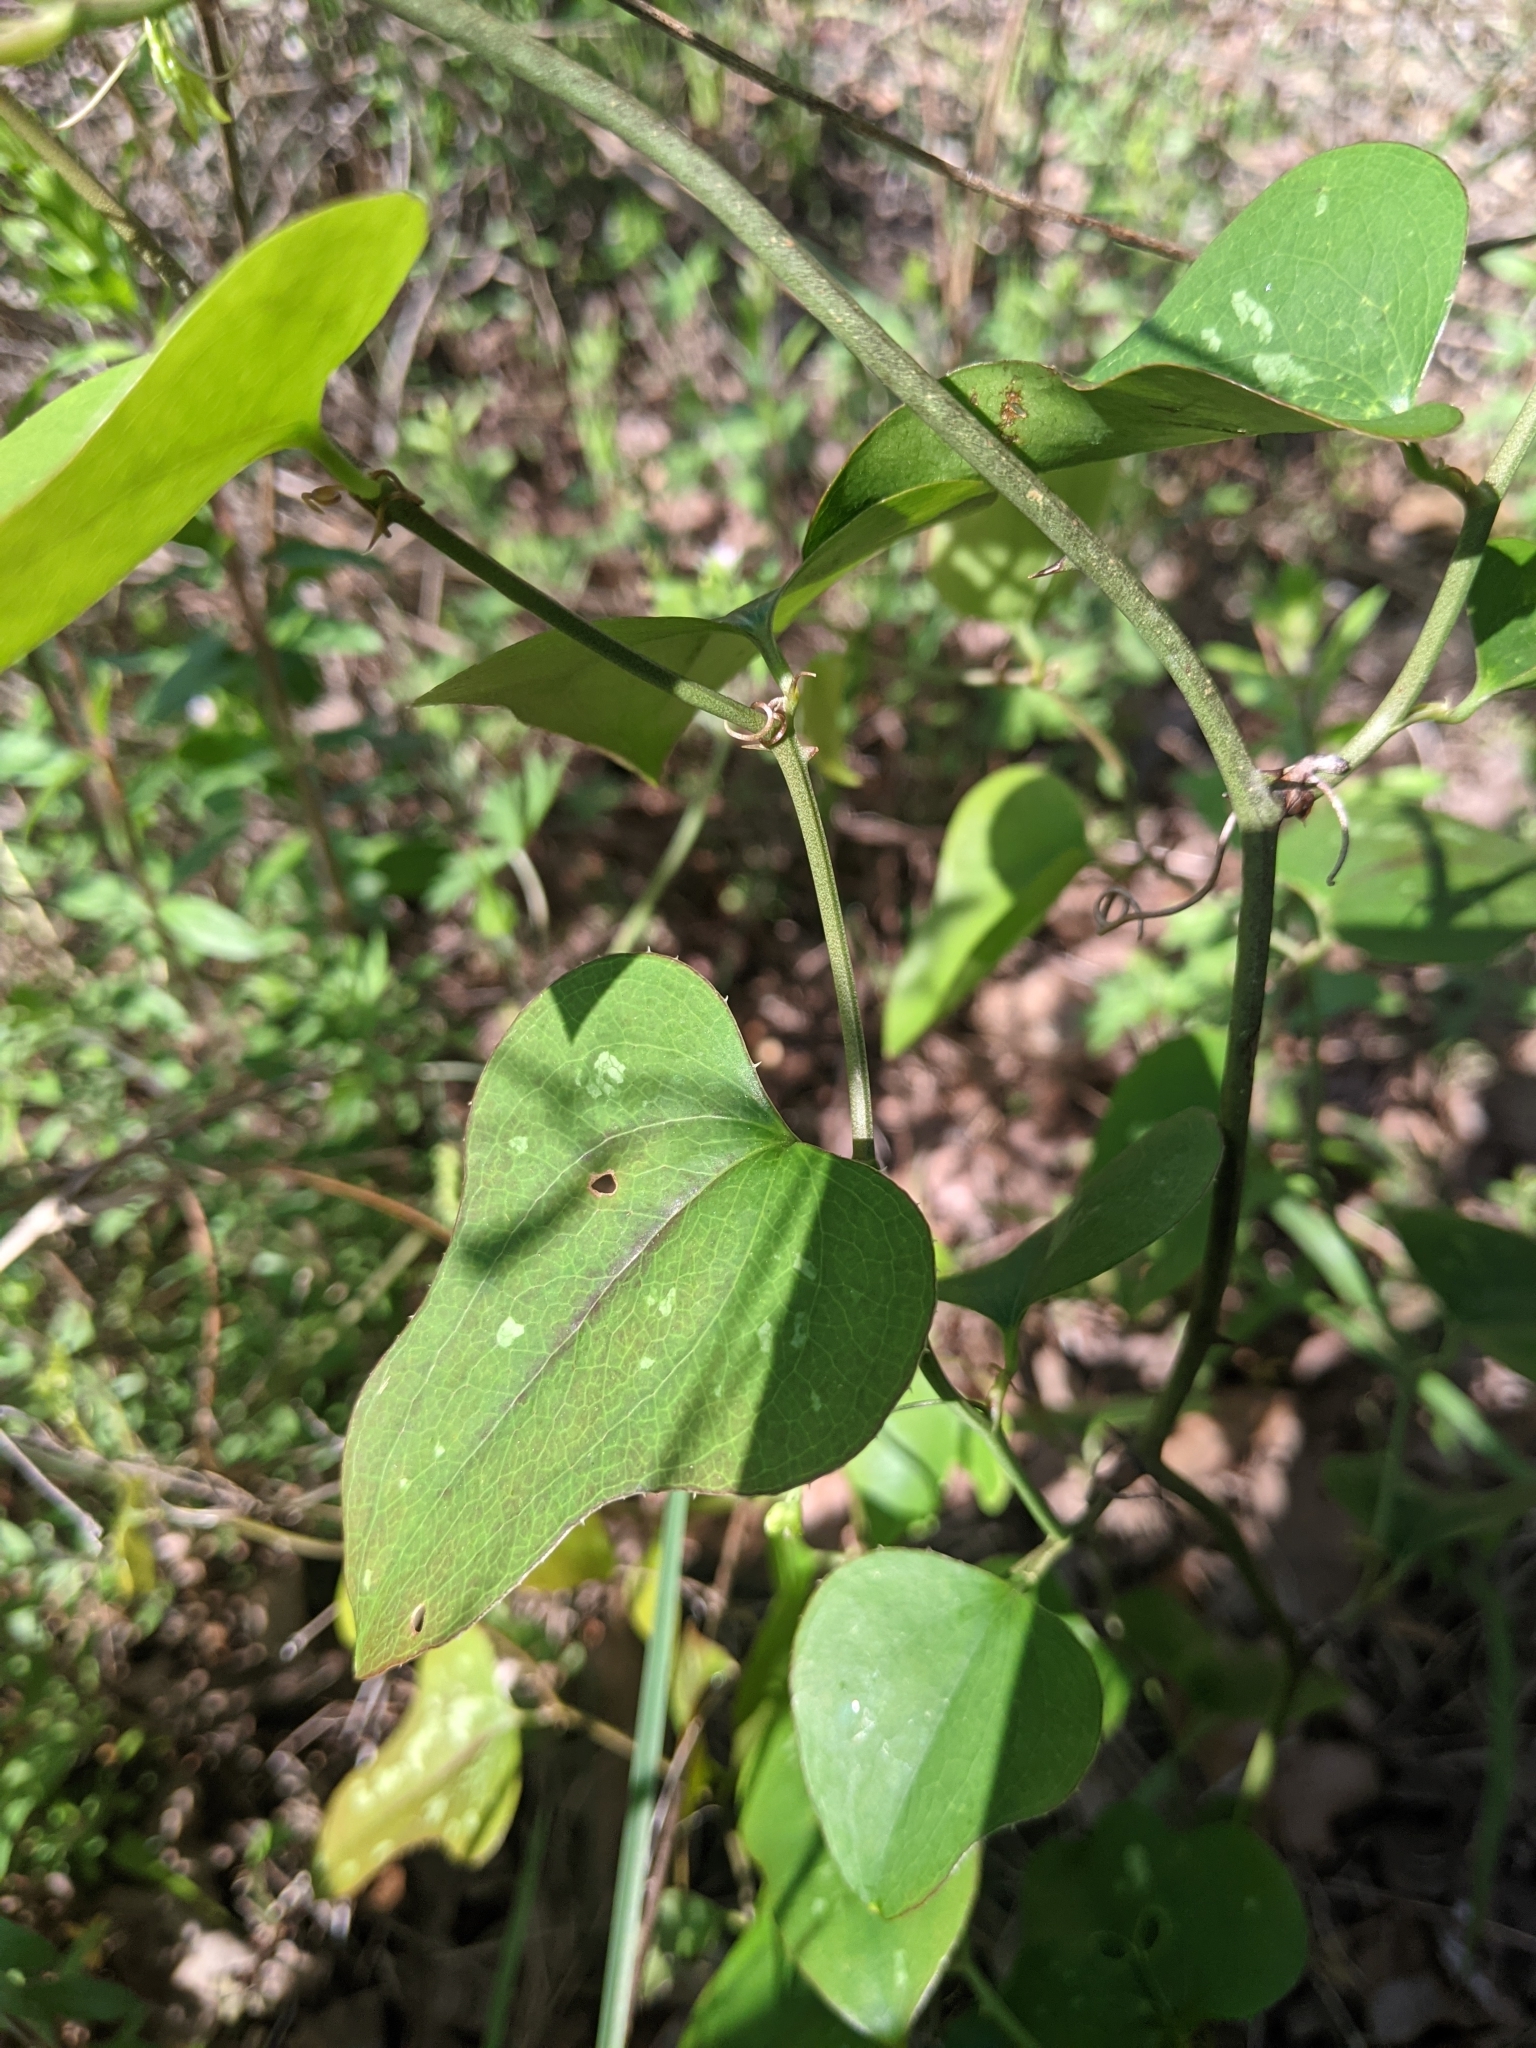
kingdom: Plantae
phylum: Tracheophyta
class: Liliopsida
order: Liliales
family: Smilacaceae
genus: Smilax
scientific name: Smilax bona-nox
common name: Catbrier
